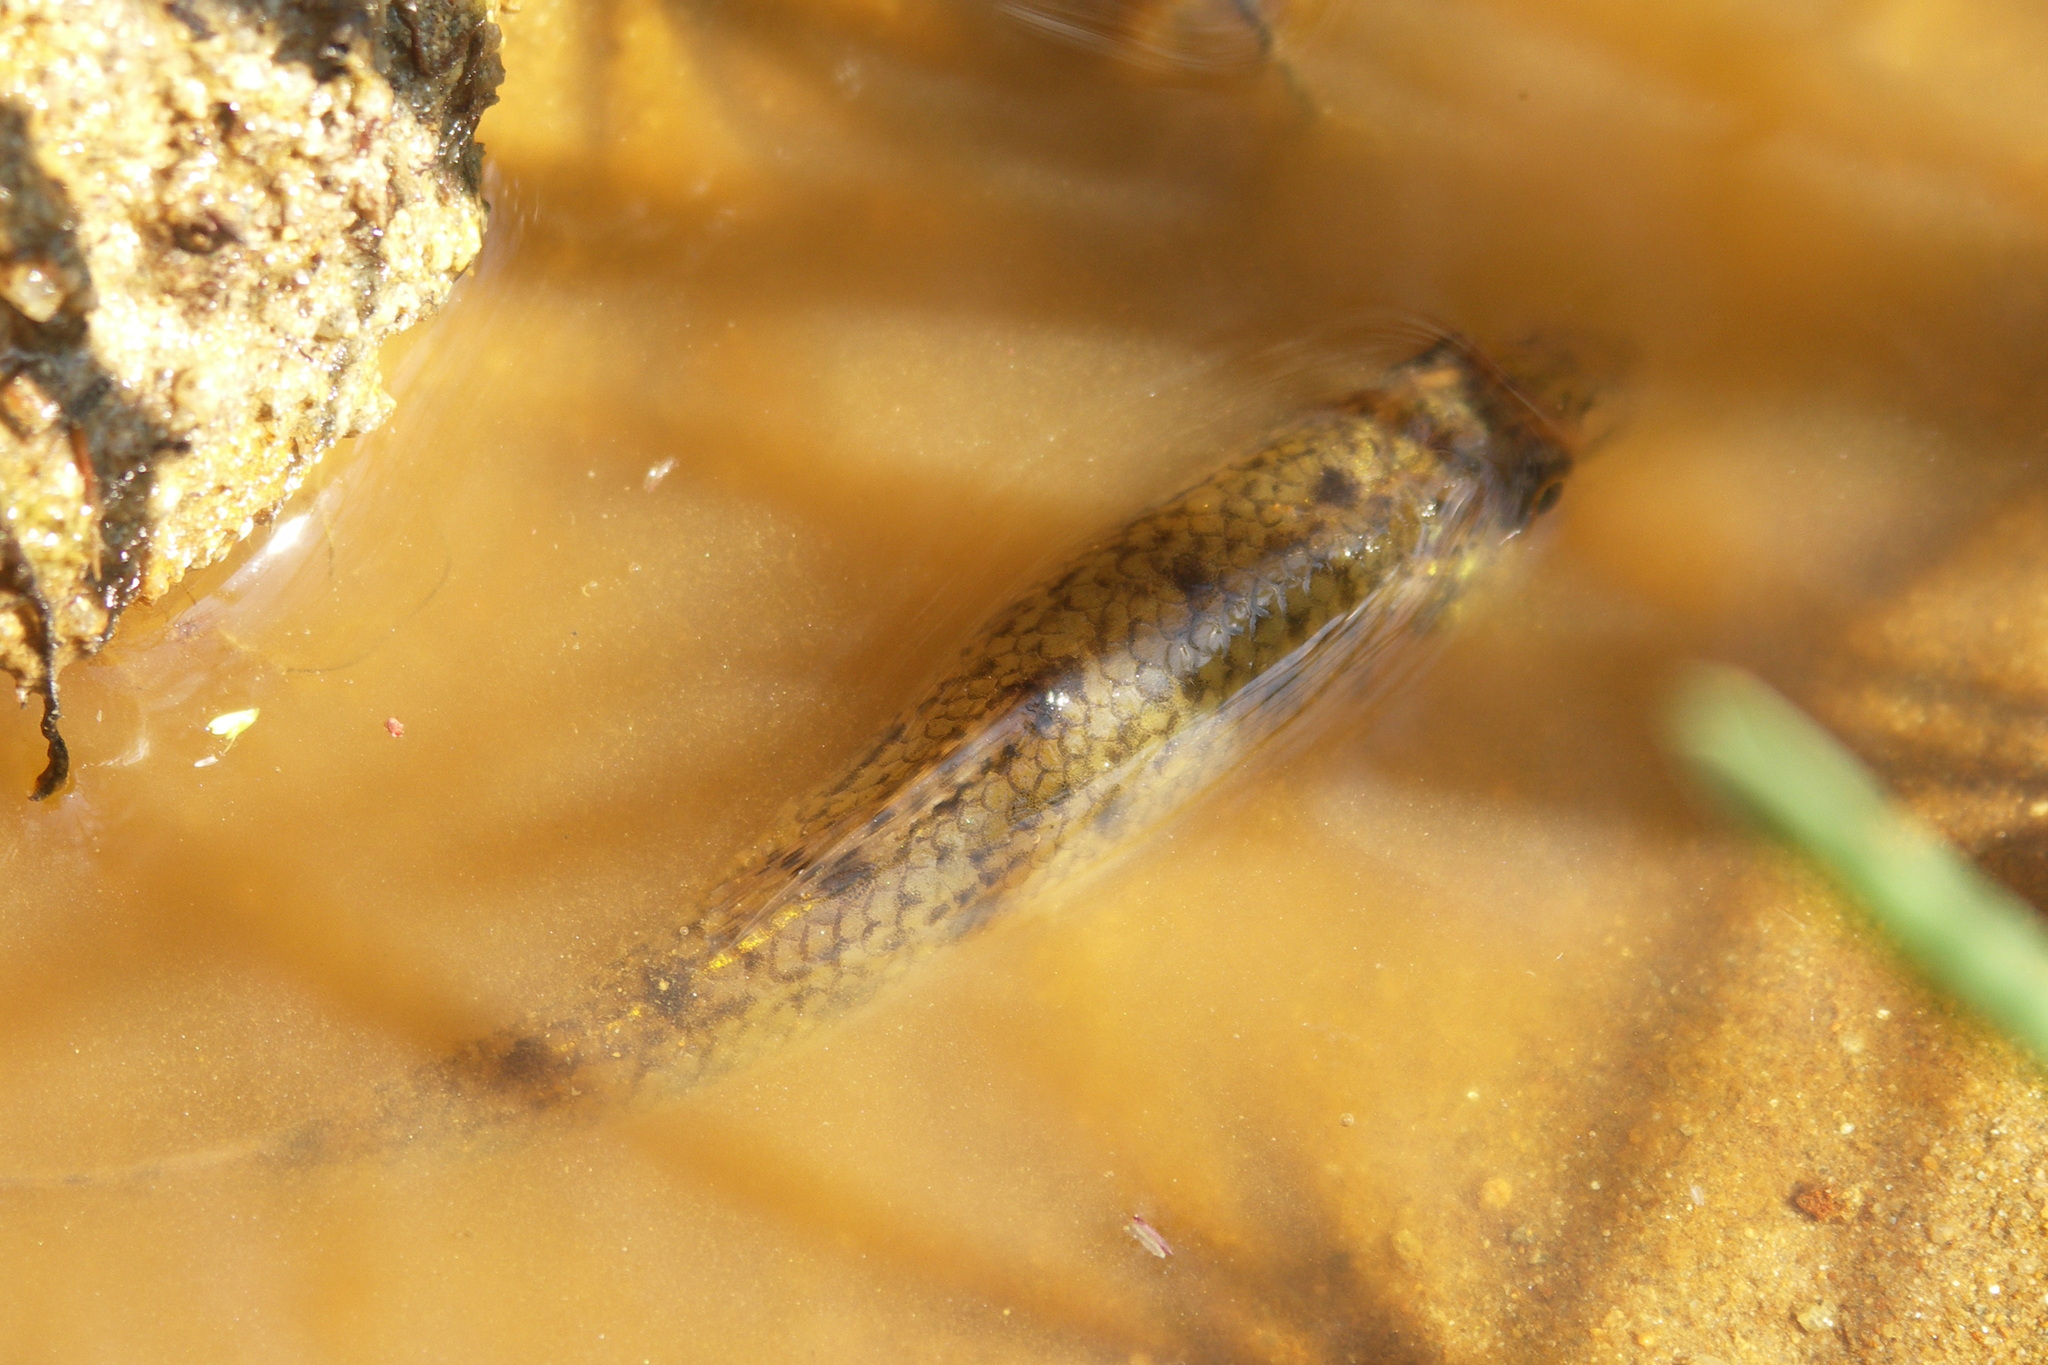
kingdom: Animalia
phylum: Chordata
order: Cypriniformes
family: Cyprinidae
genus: Gobio
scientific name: Gobio gobio
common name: Gudgeon
